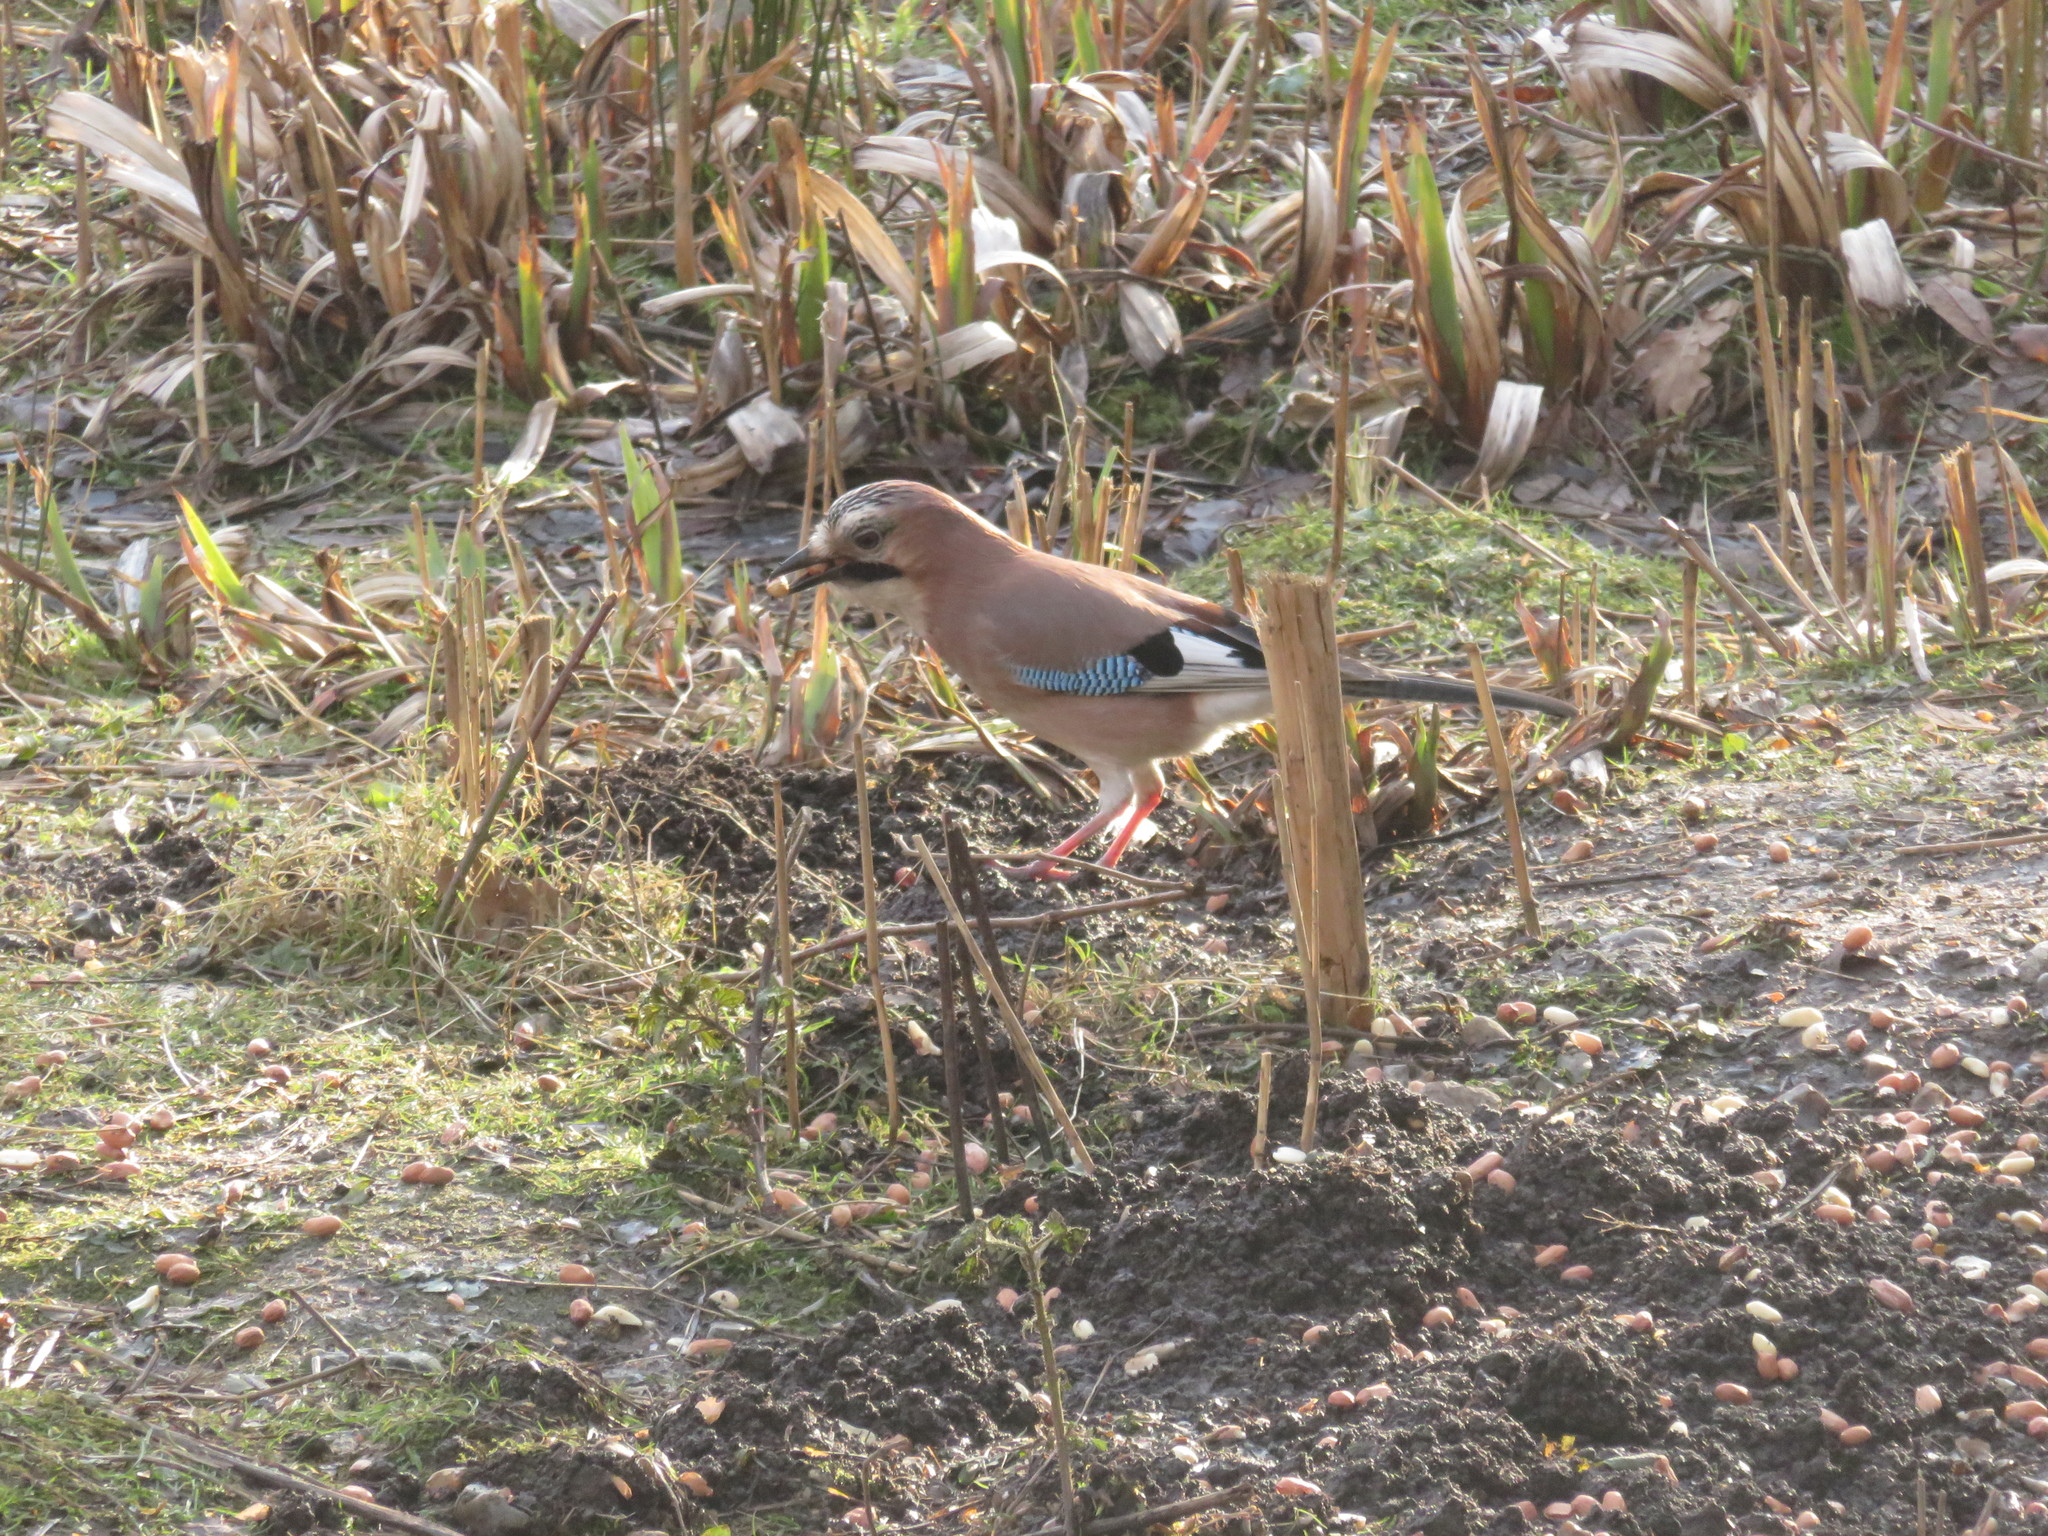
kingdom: Animalia
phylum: Chordata
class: Aves
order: Passeriformes
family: Corvidae
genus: Garrulus
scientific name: Garrulus glandarius
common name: Eurasian jay
